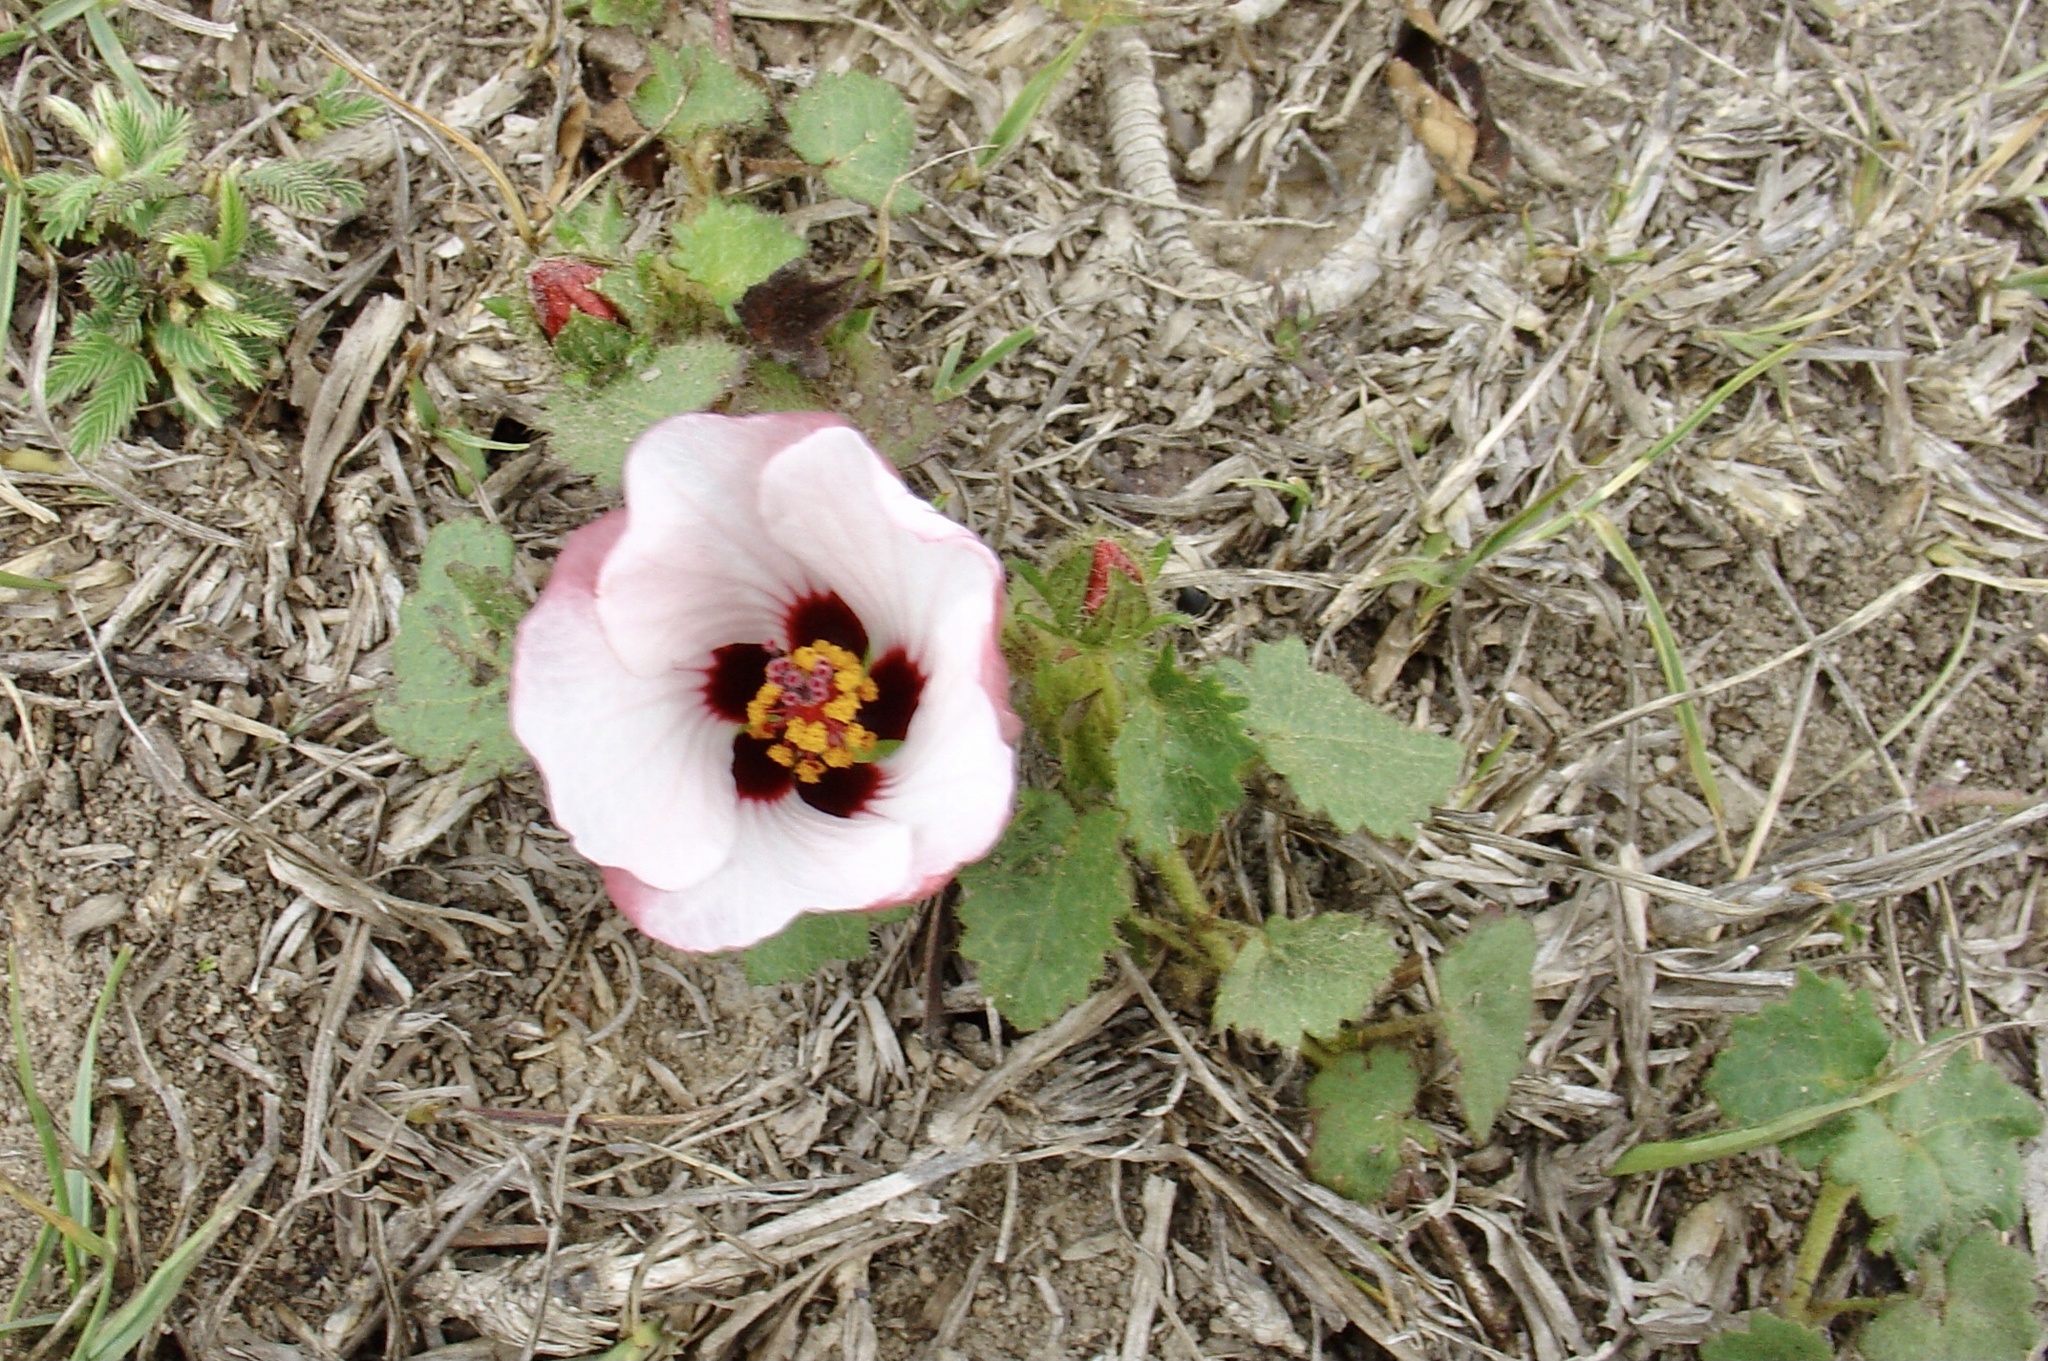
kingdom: Plantae
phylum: Tracheophyta
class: Magnoliopsida
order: Malvales
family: Malvaceae
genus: Pavonia
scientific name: Pavonia glechomoides
